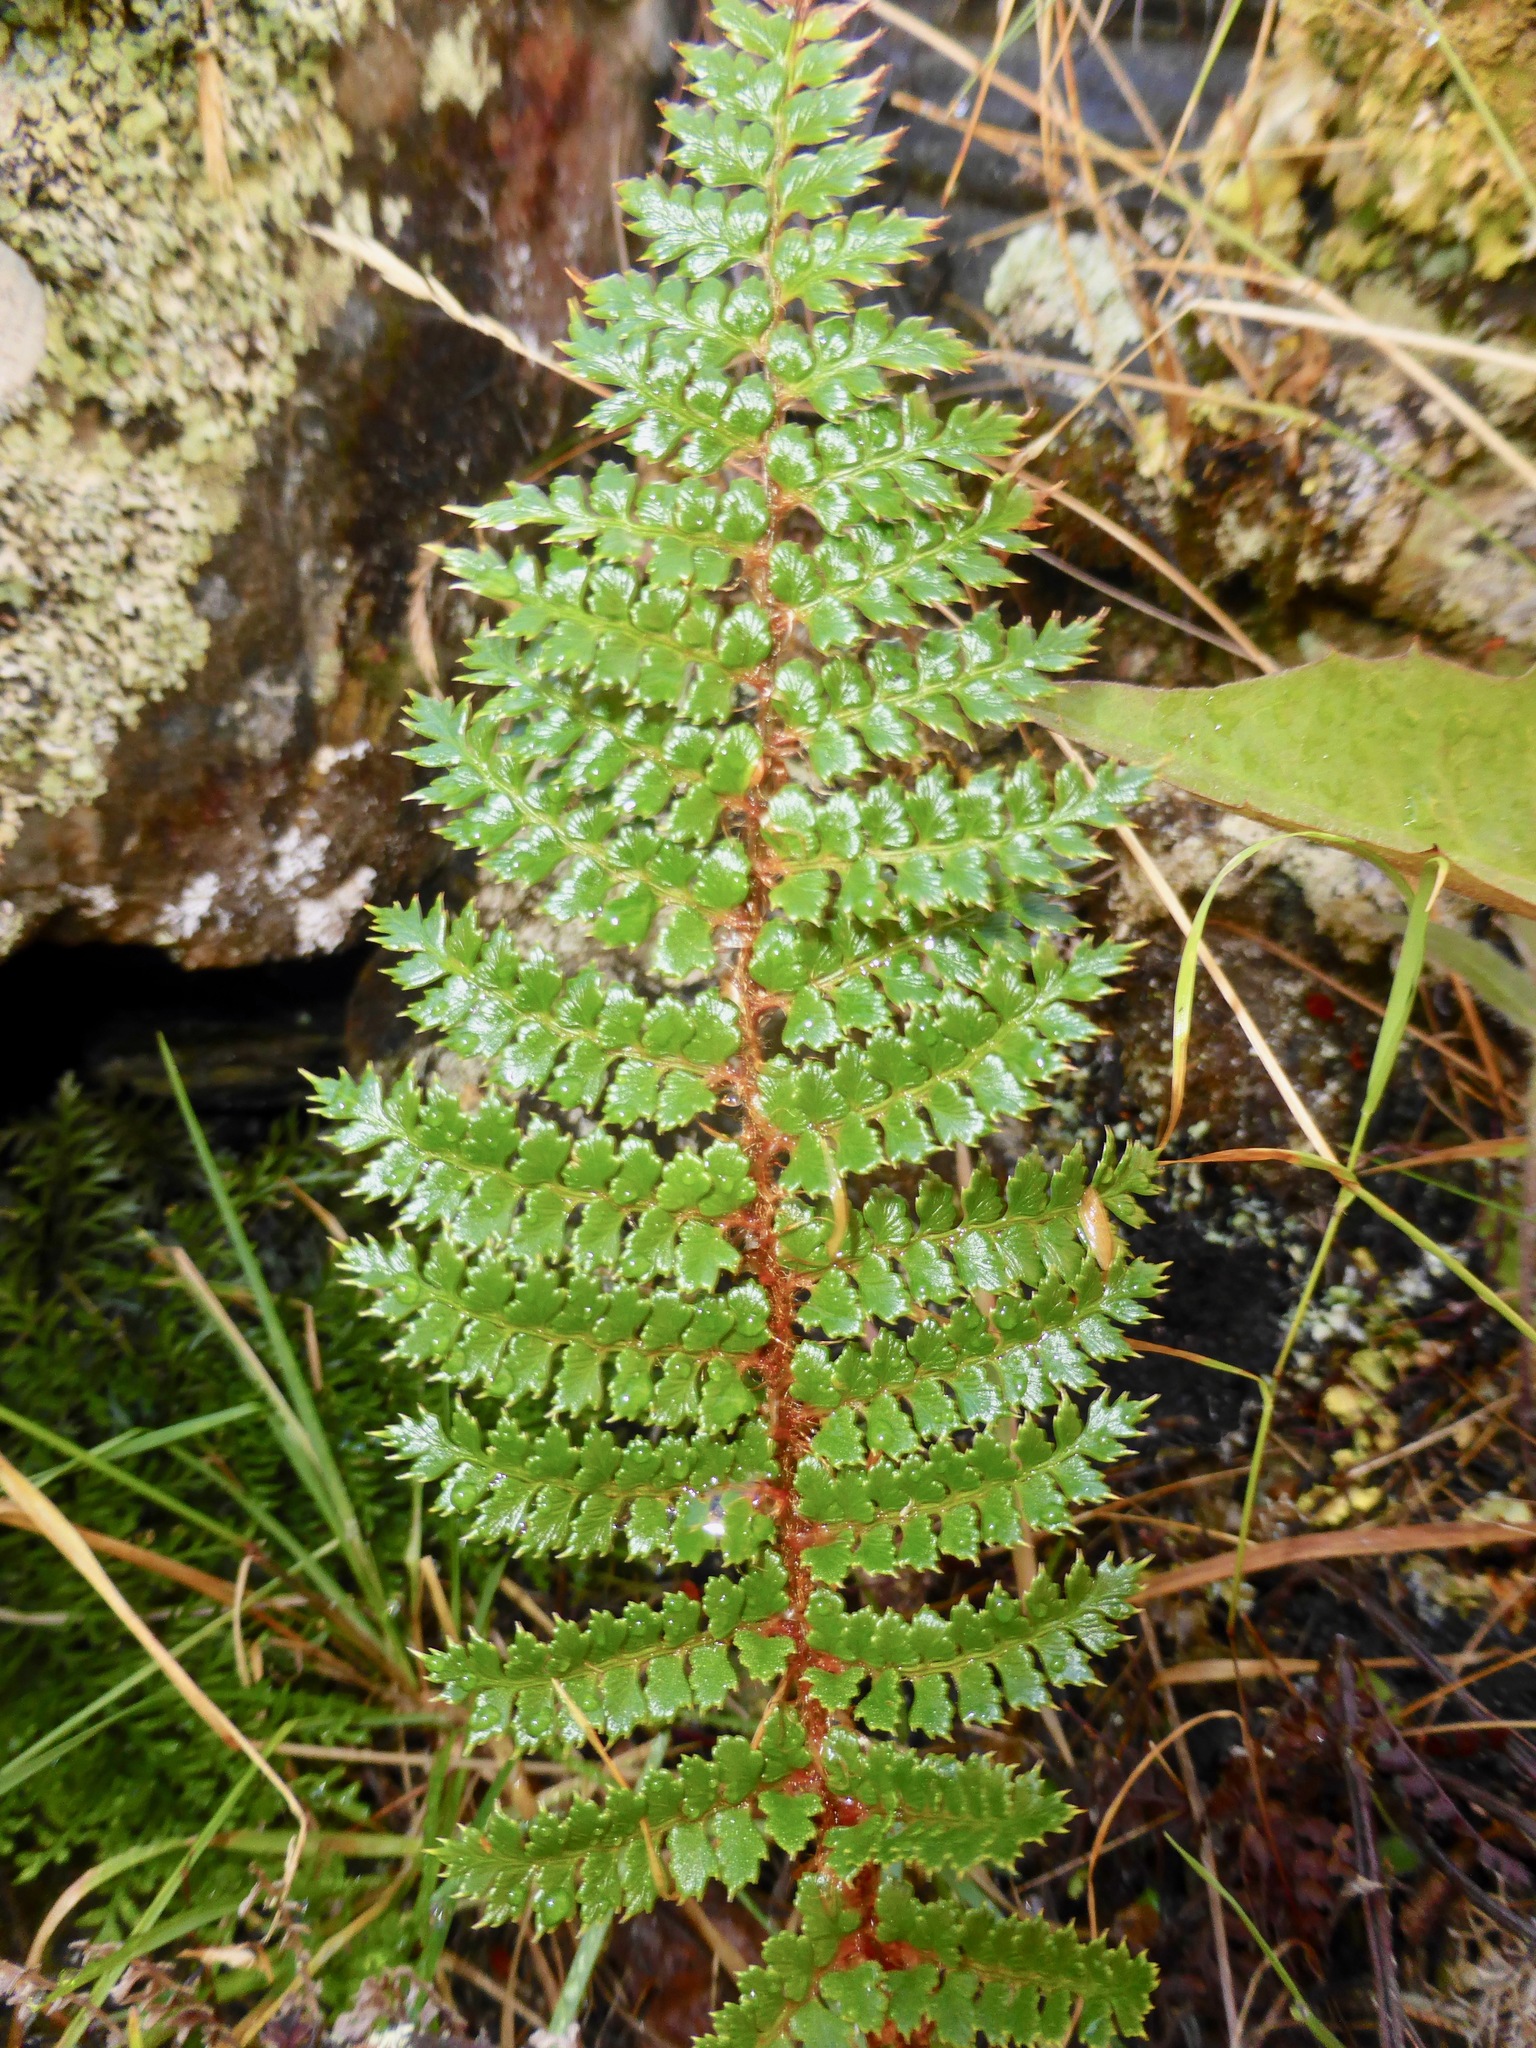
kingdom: Plantae
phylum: Tracheophyta
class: Polypodiopsida
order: Polypodiales
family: Dryopteridaceae
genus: Polystichum
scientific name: Polystichum vestitum
